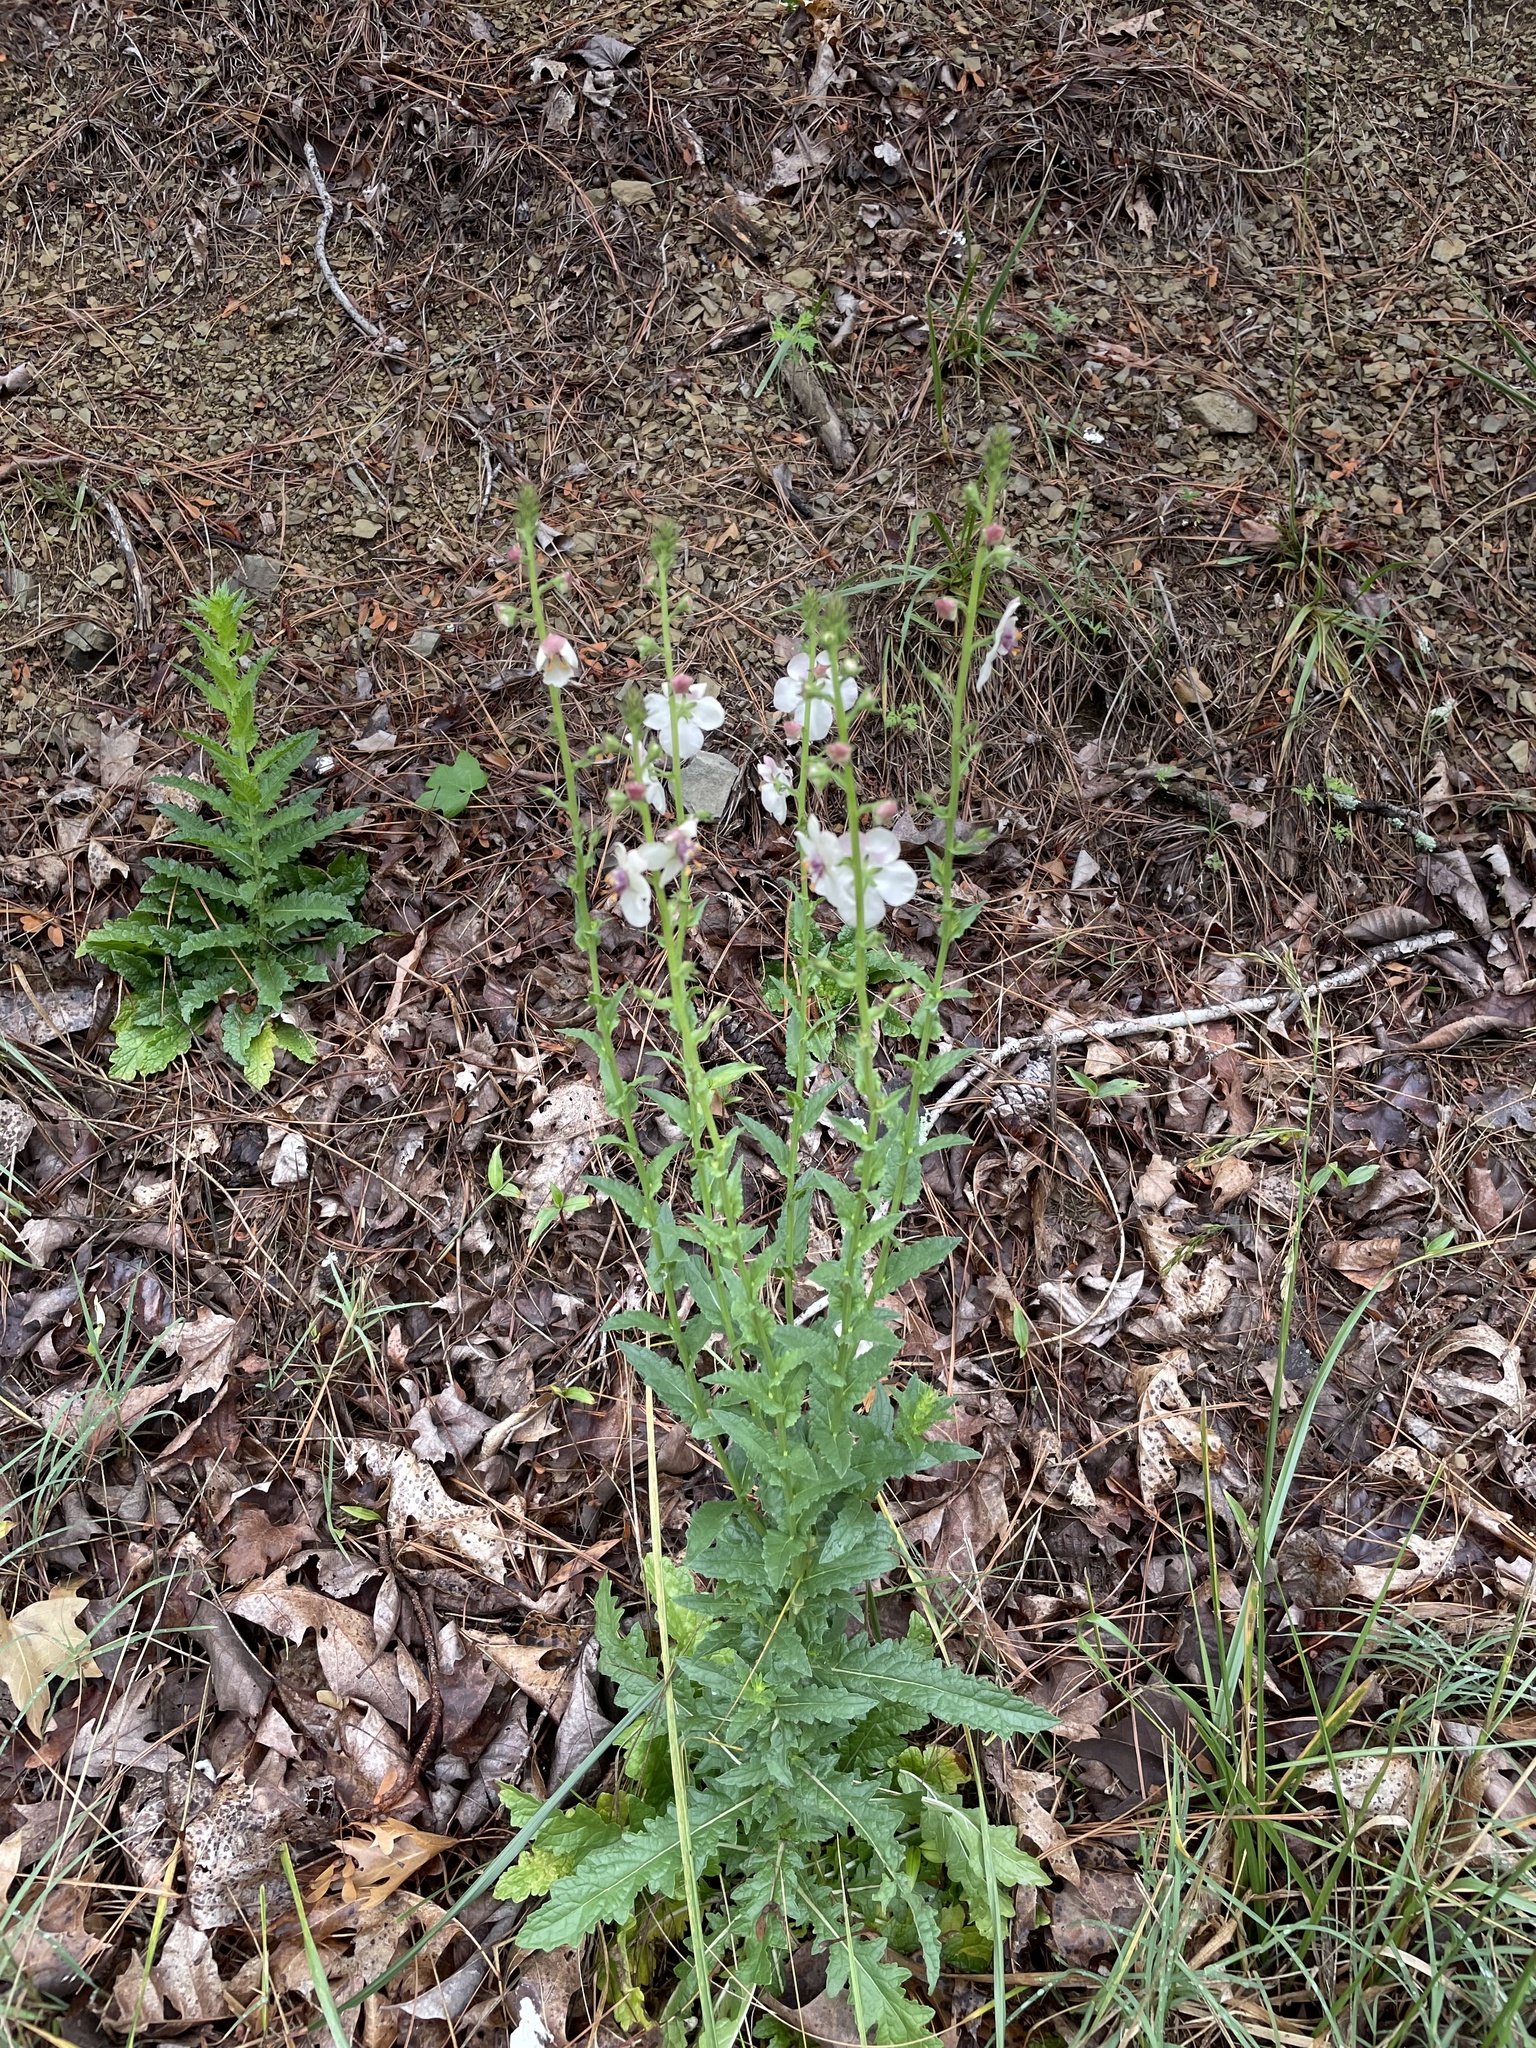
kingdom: Plantae
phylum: Tracheophyta
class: Magnoliopsida
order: Lamiales
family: Scrophulariaceae
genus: Verbascum
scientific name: Verbascum blattaria
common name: Moth mullein
